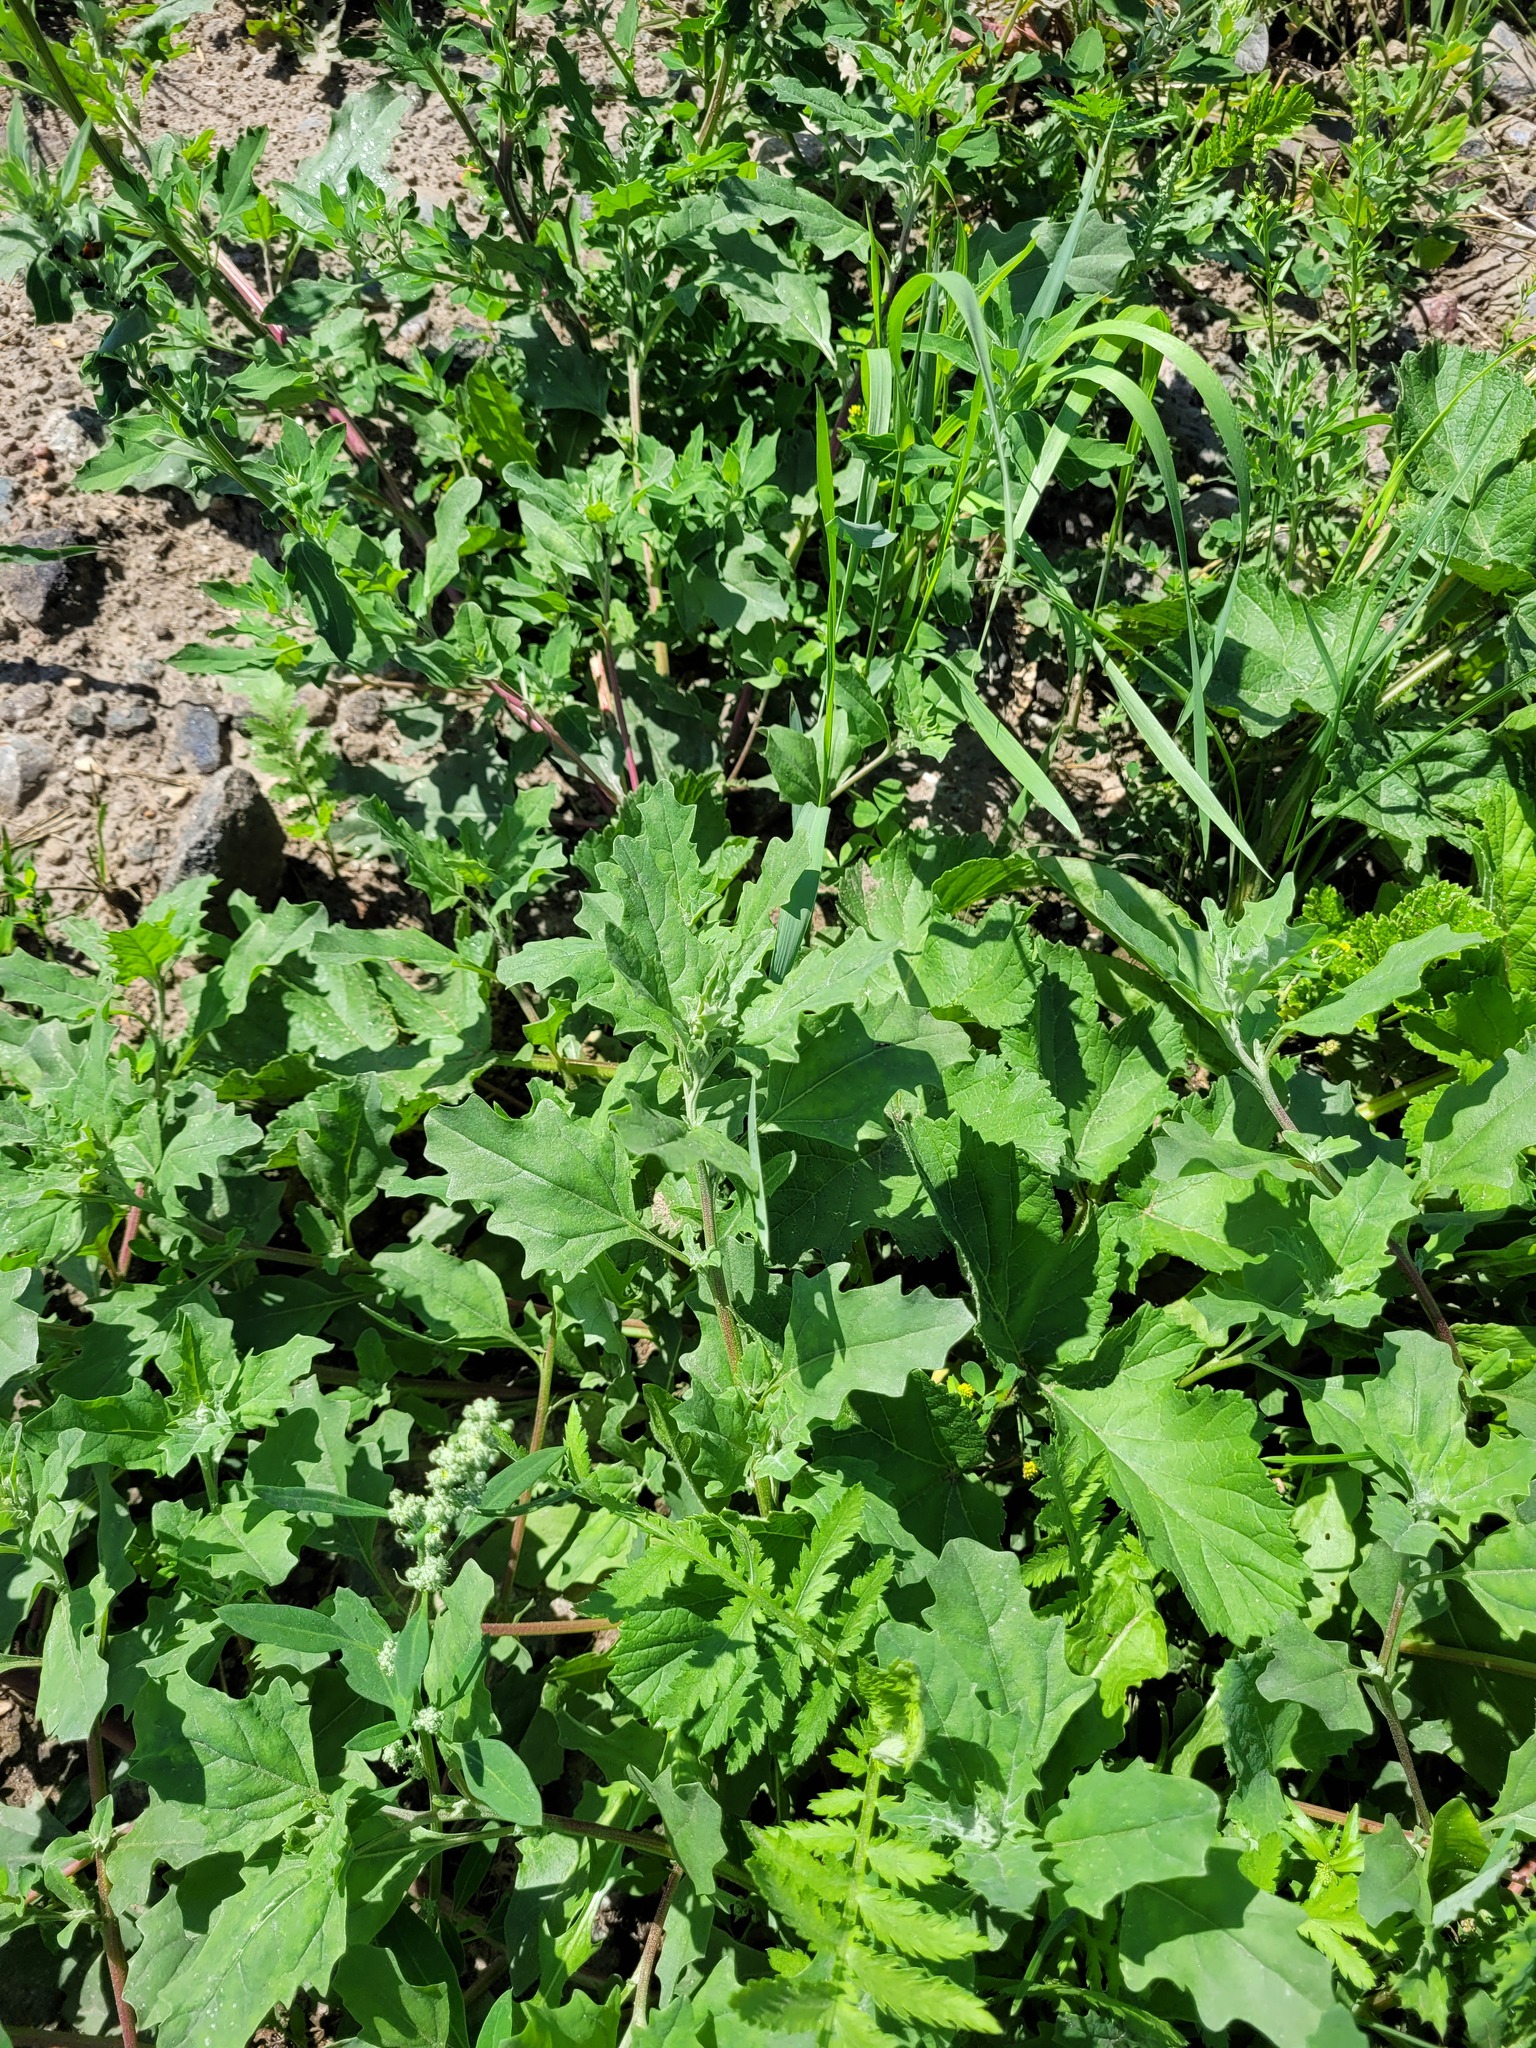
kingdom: Plantae
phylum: Tracheophyta
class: Magnoliopsida
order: Caryophyllales
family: Amaranthaceae
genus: Atriplex
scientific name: Atriplex tatarica
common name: Tatarian orache
